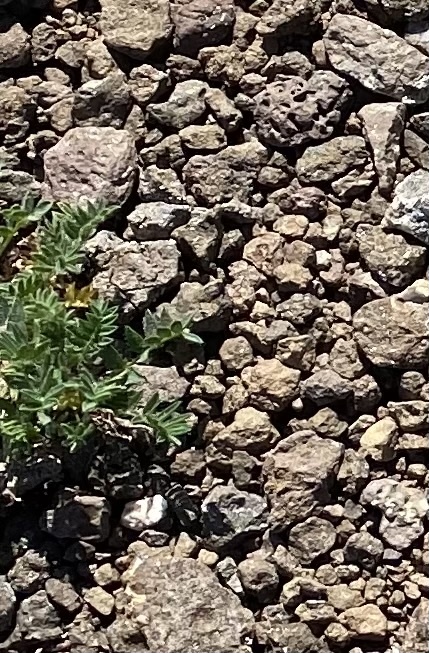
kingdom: Plantae
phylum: Tracheophyta
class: Magnoliopsida
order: Fabales
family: Fabaceae
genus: Oxytropis
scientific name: Oxytropis nigrescens
